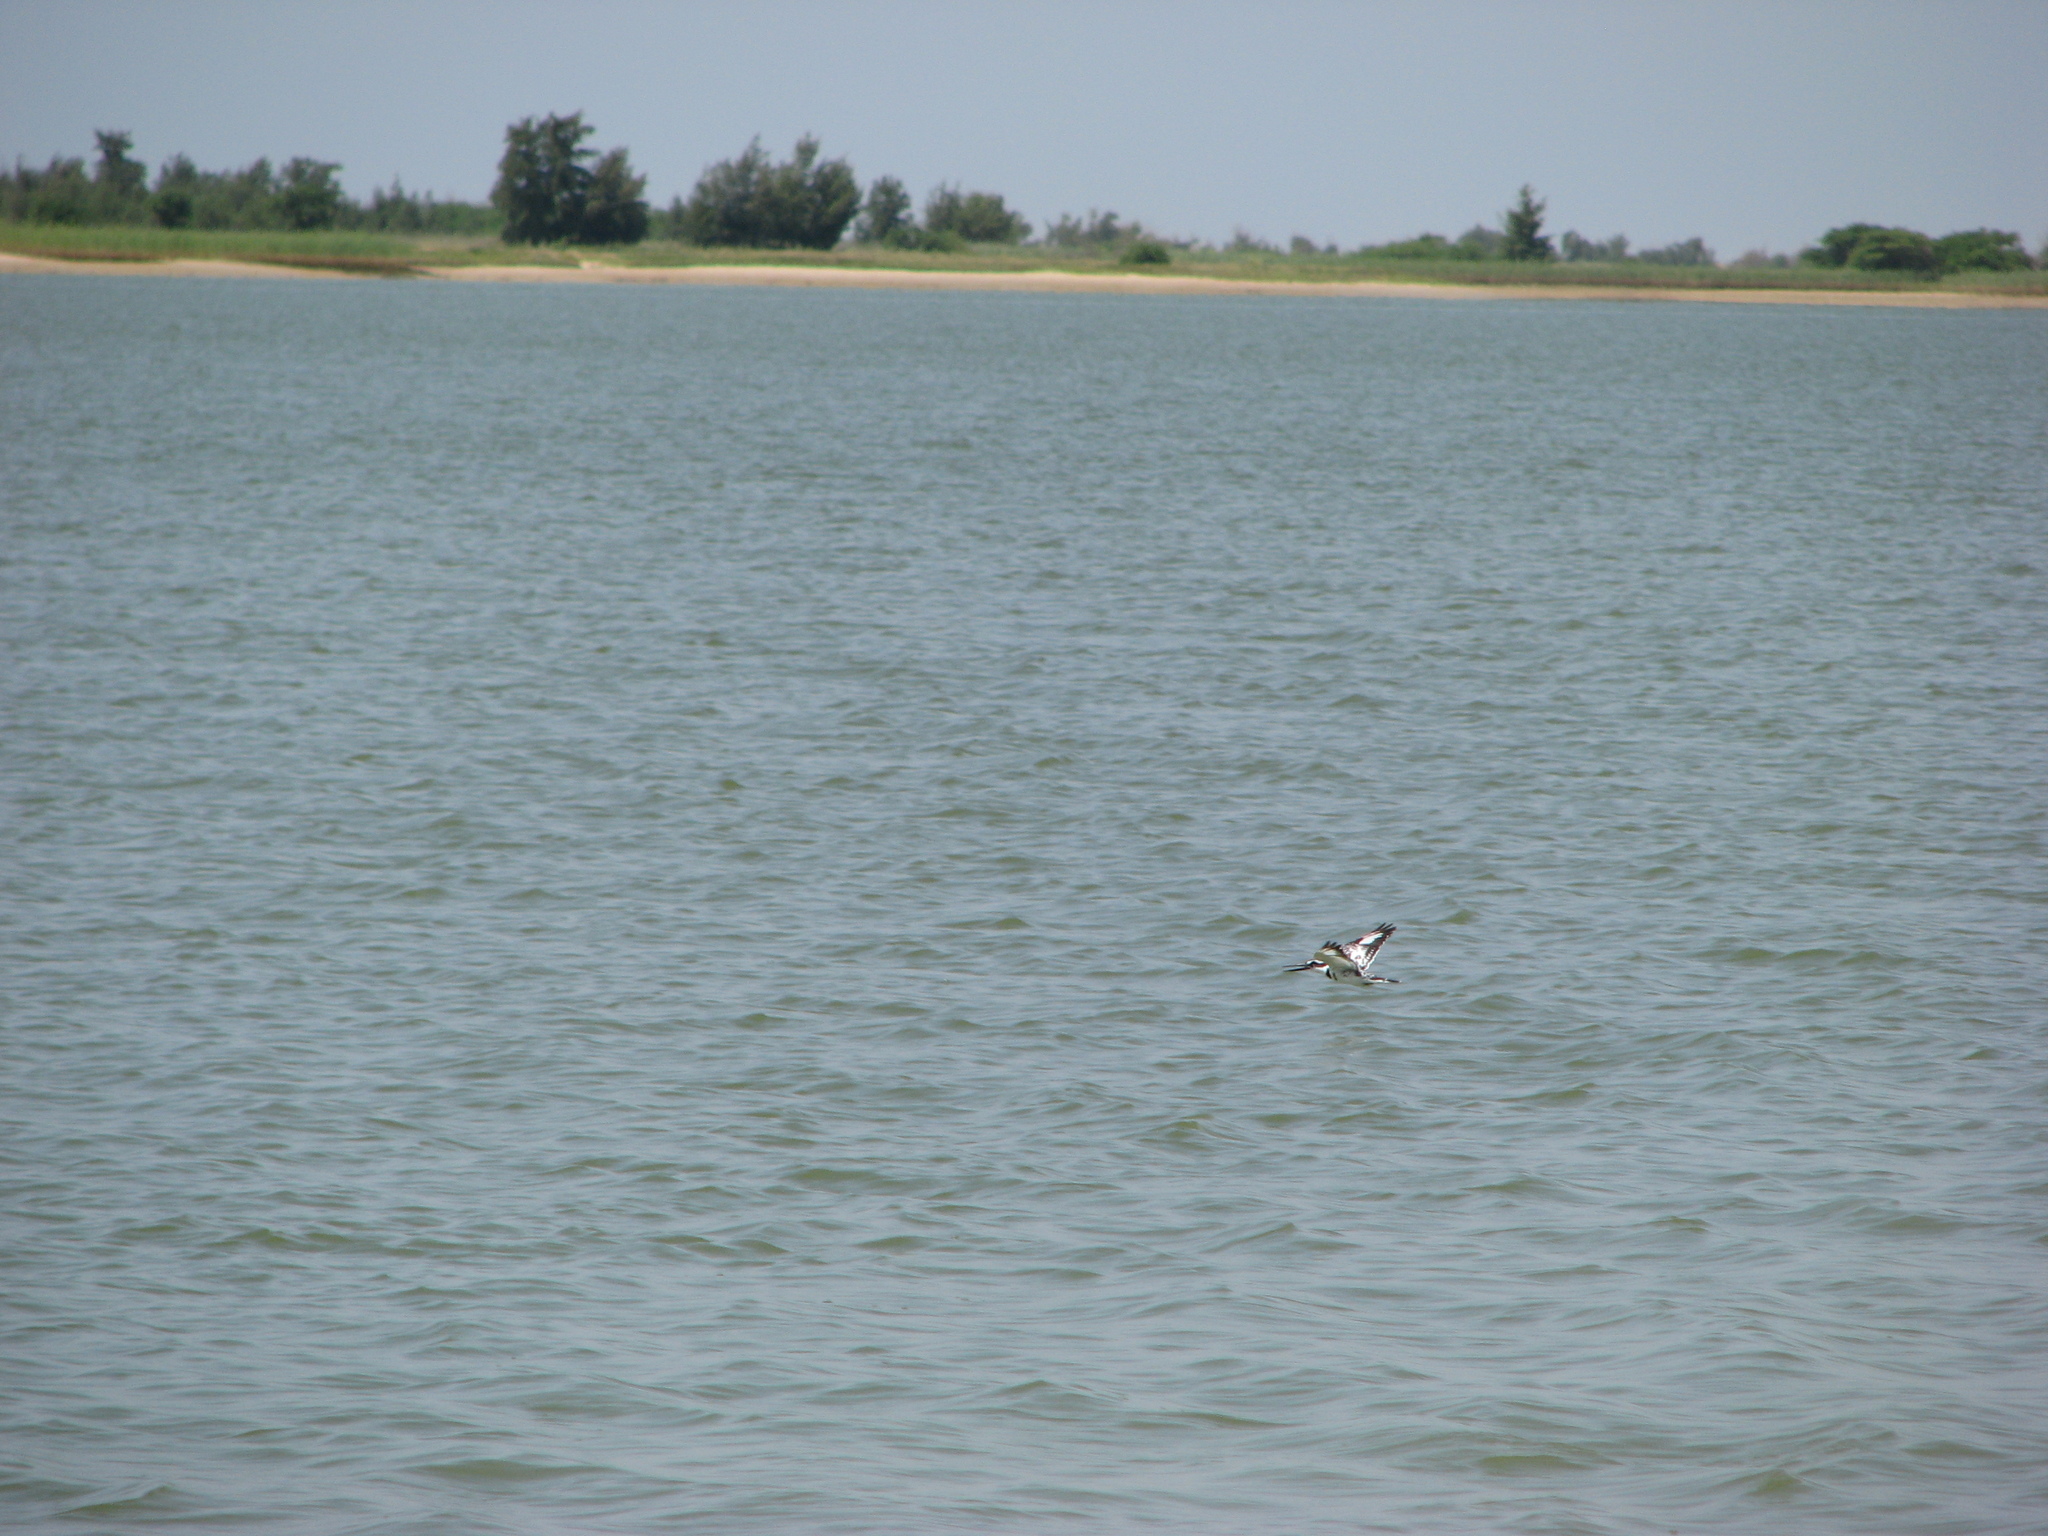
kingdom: Animalia
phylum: Chordata
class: Aves
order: Coraciiformes
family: Alcedinidae
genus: Ceryle
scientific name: Ceryle rudis
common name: Pied kingfisher
